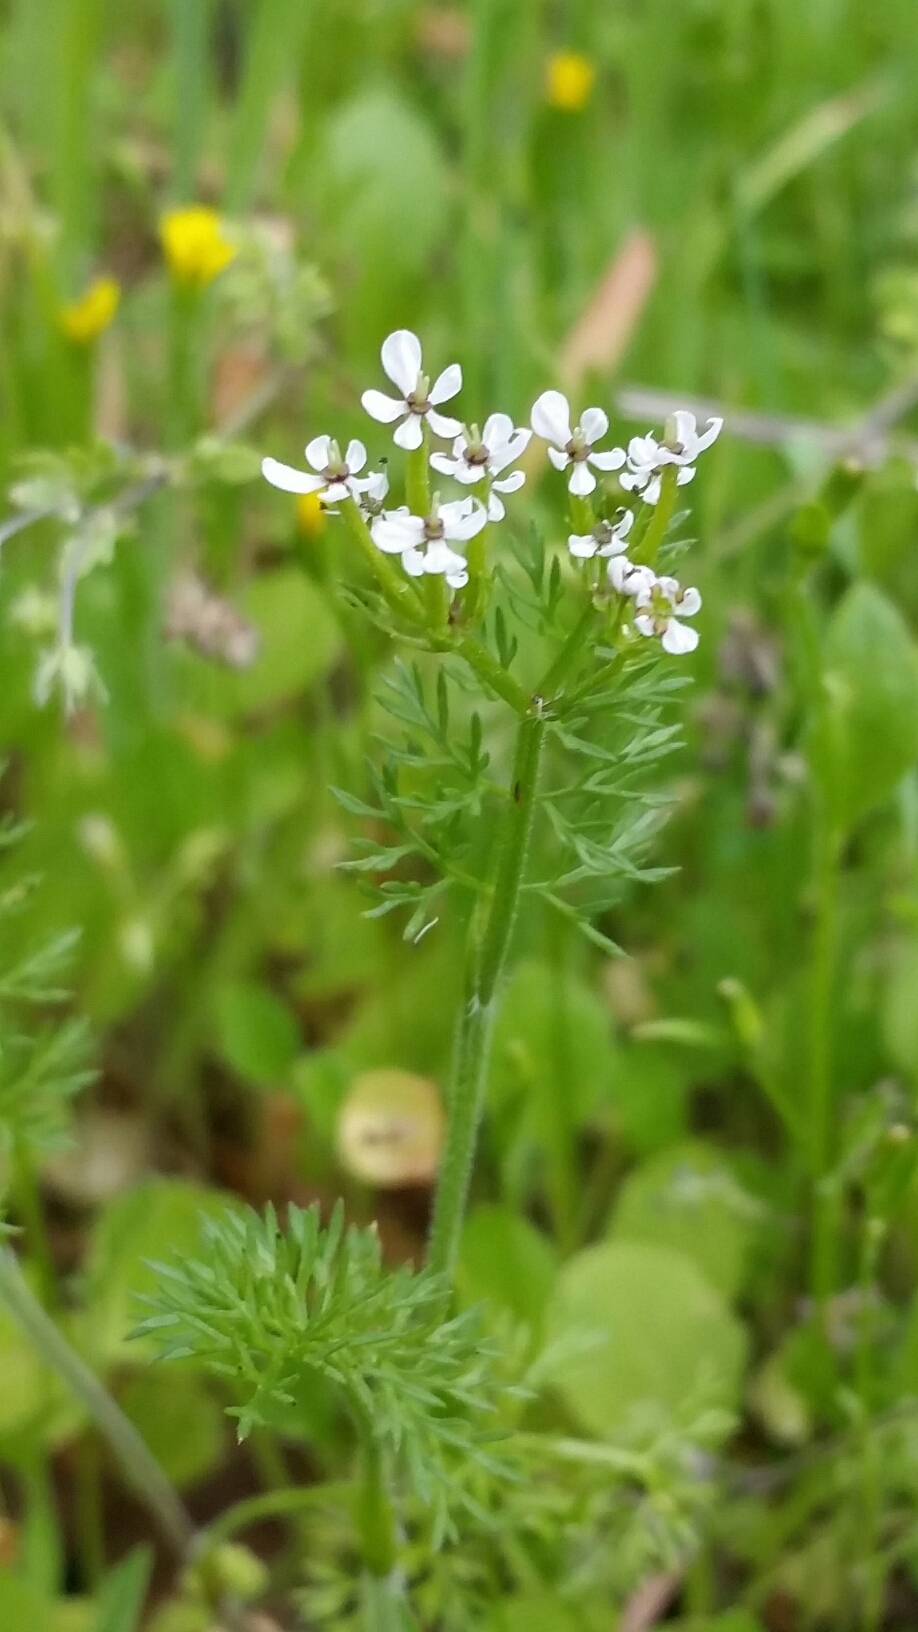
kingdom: Plantae
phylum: Tracheophyta
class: Magnoliopsida
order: Apiales
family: Apiaceae
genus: Scandix
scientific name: Scandix pecten-veneris
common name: Shepherd's-needle
